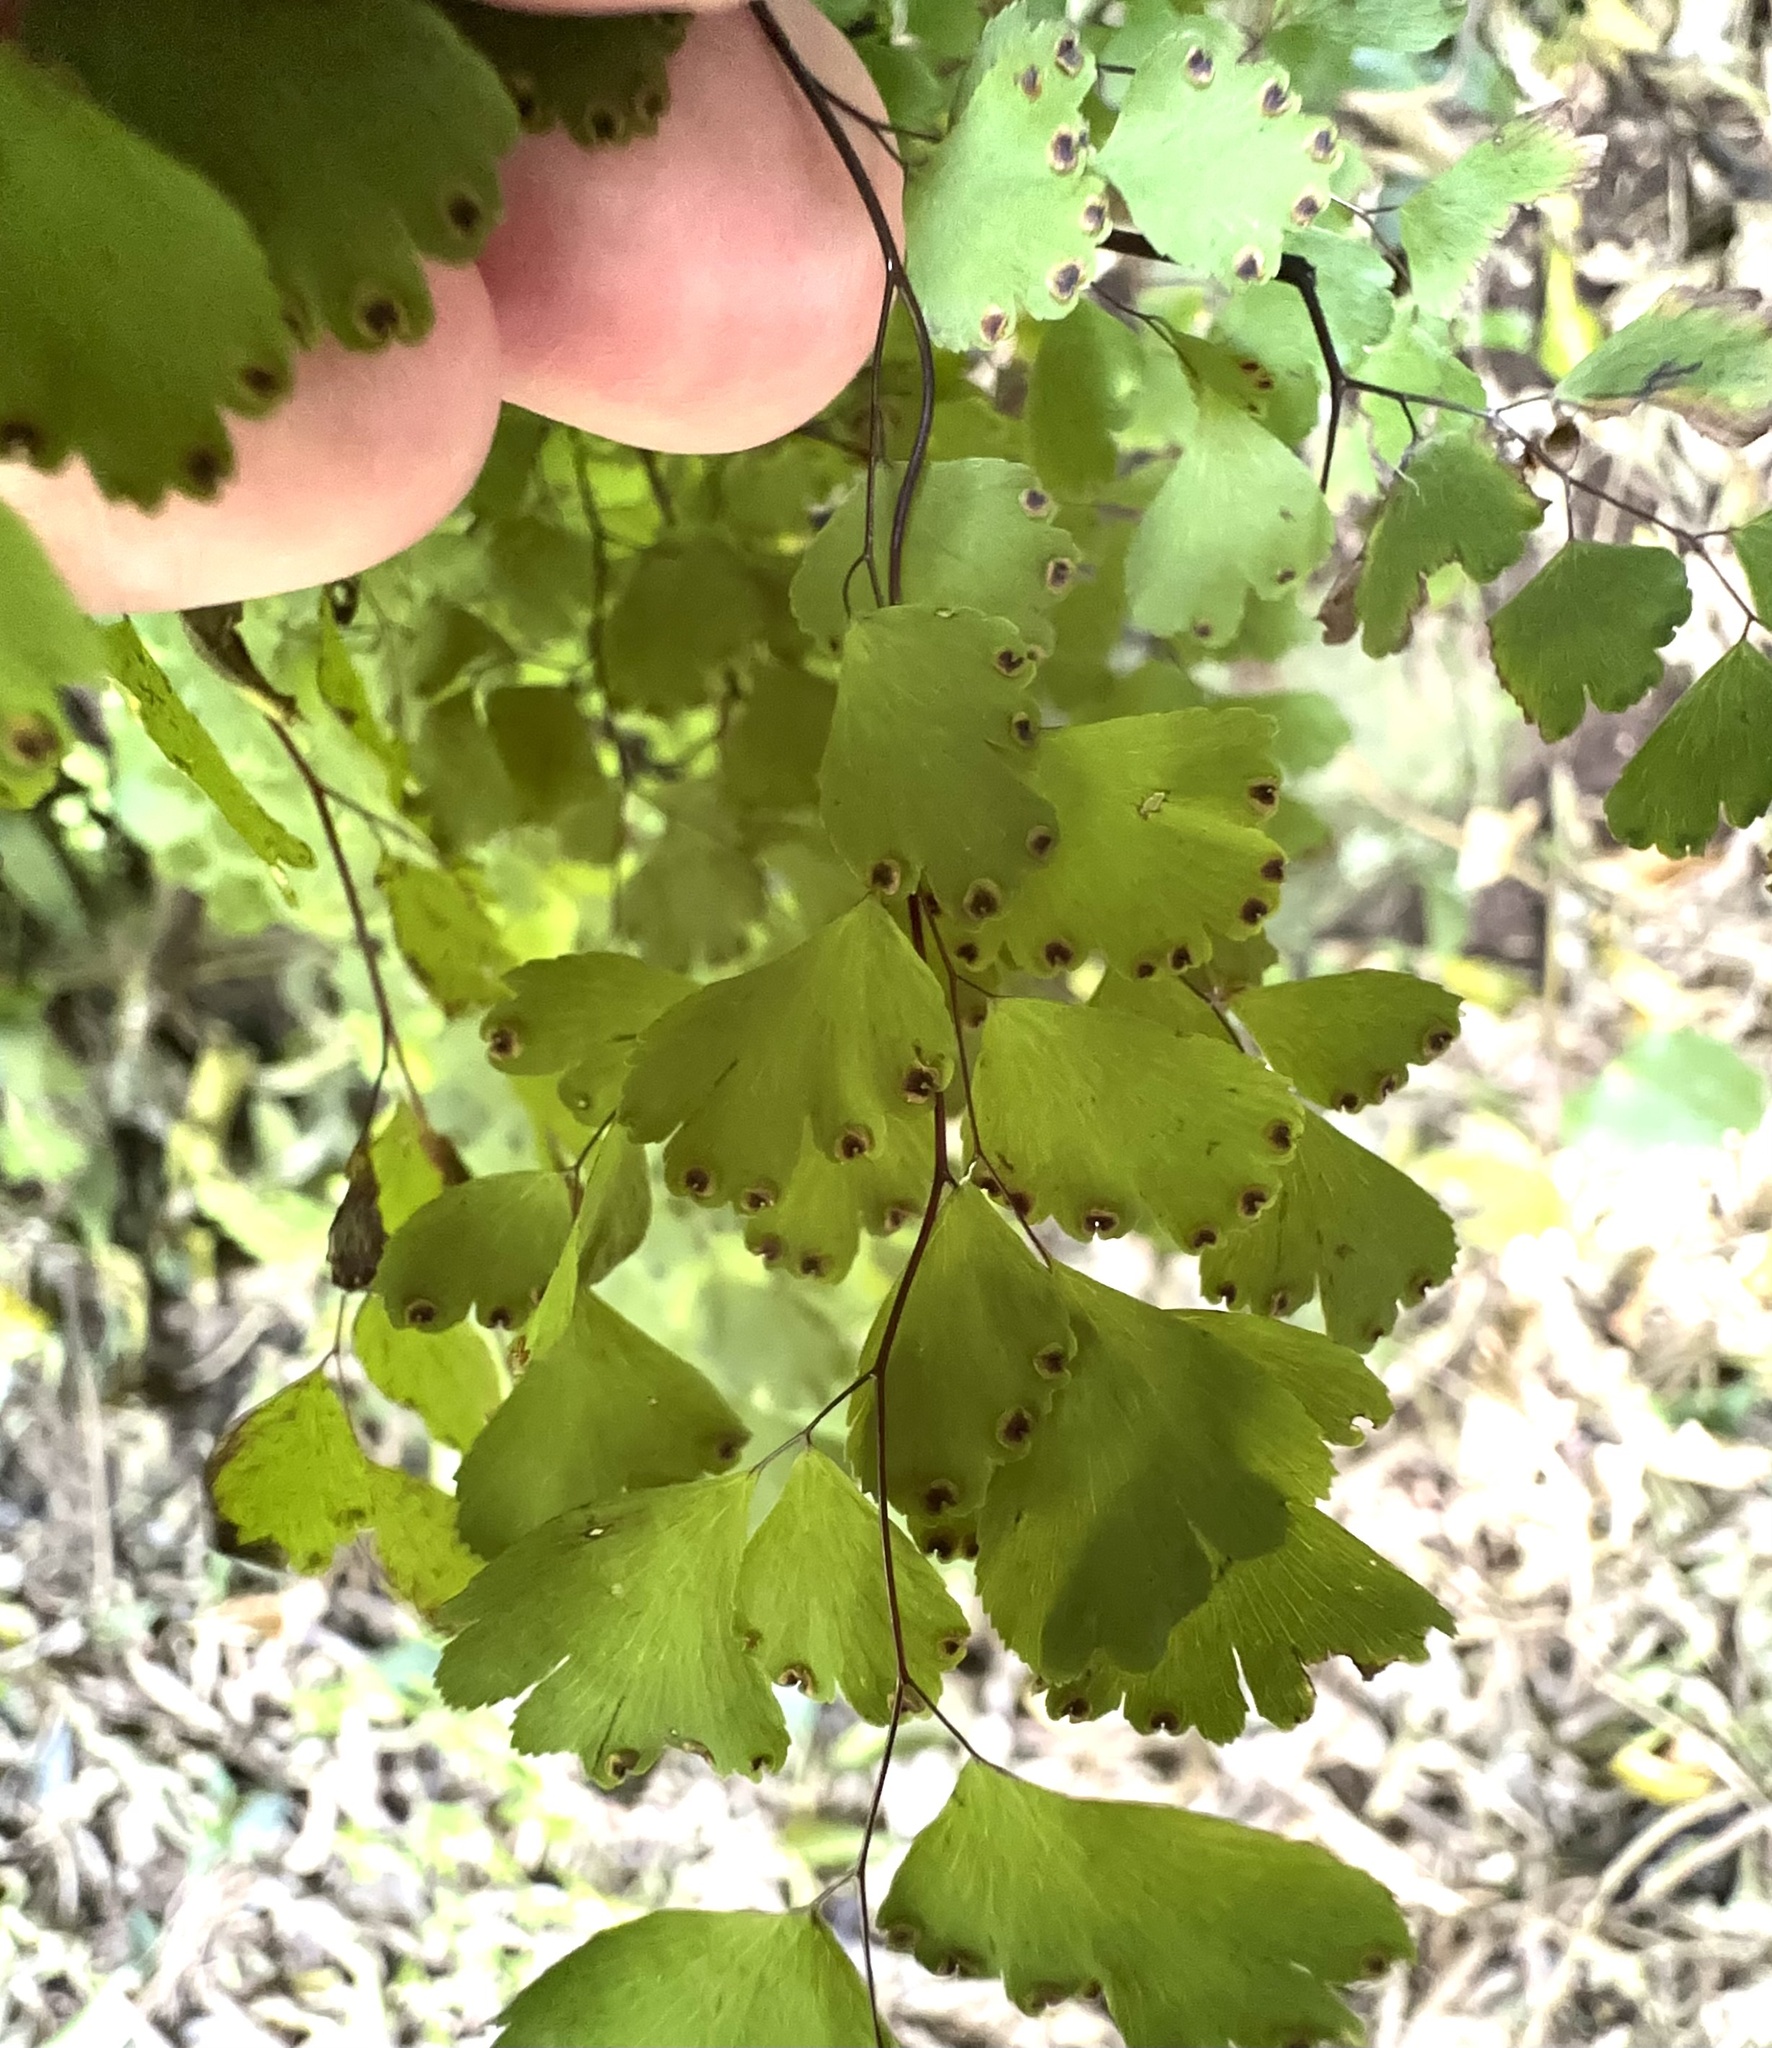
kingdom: Plantae
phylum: Tracheophyta
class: Polypodiopsida
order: Polypodiales
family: Pteridaceae
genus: Adiantum
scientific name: Adiantum raddianum
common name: Delta maidenhair fern
